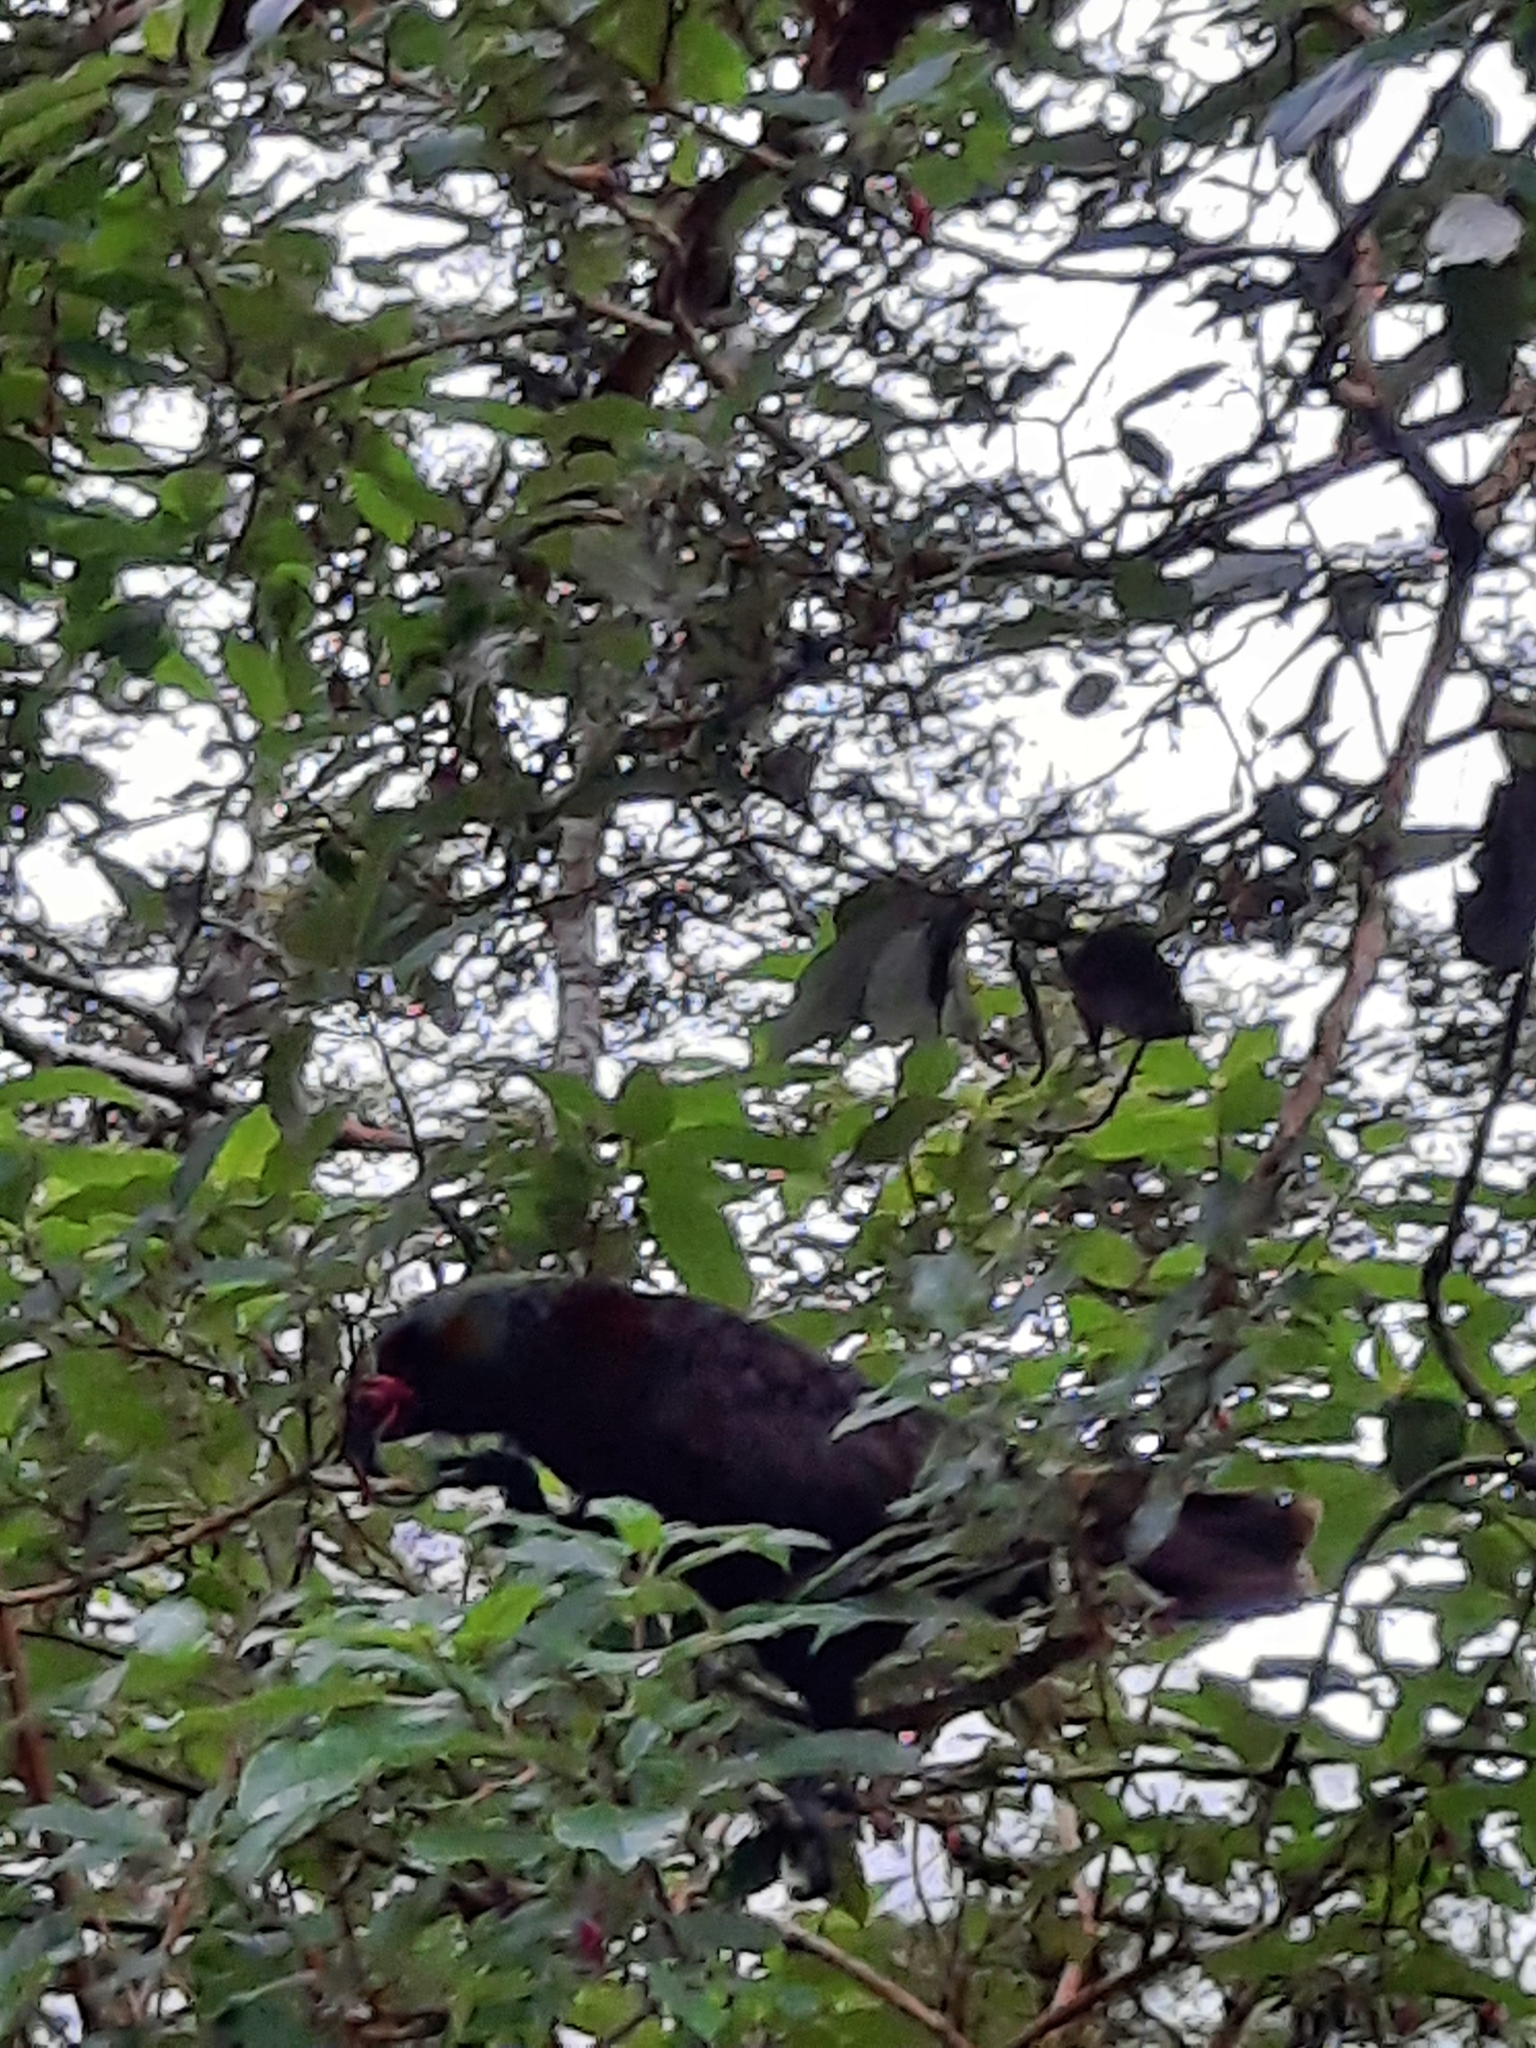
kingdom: Animalia
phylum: Chordata
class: Aves
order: Psittaciformes
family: Psittacidae
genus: Nestor
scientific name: Nestor meridionalis
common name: New zealand kaka
